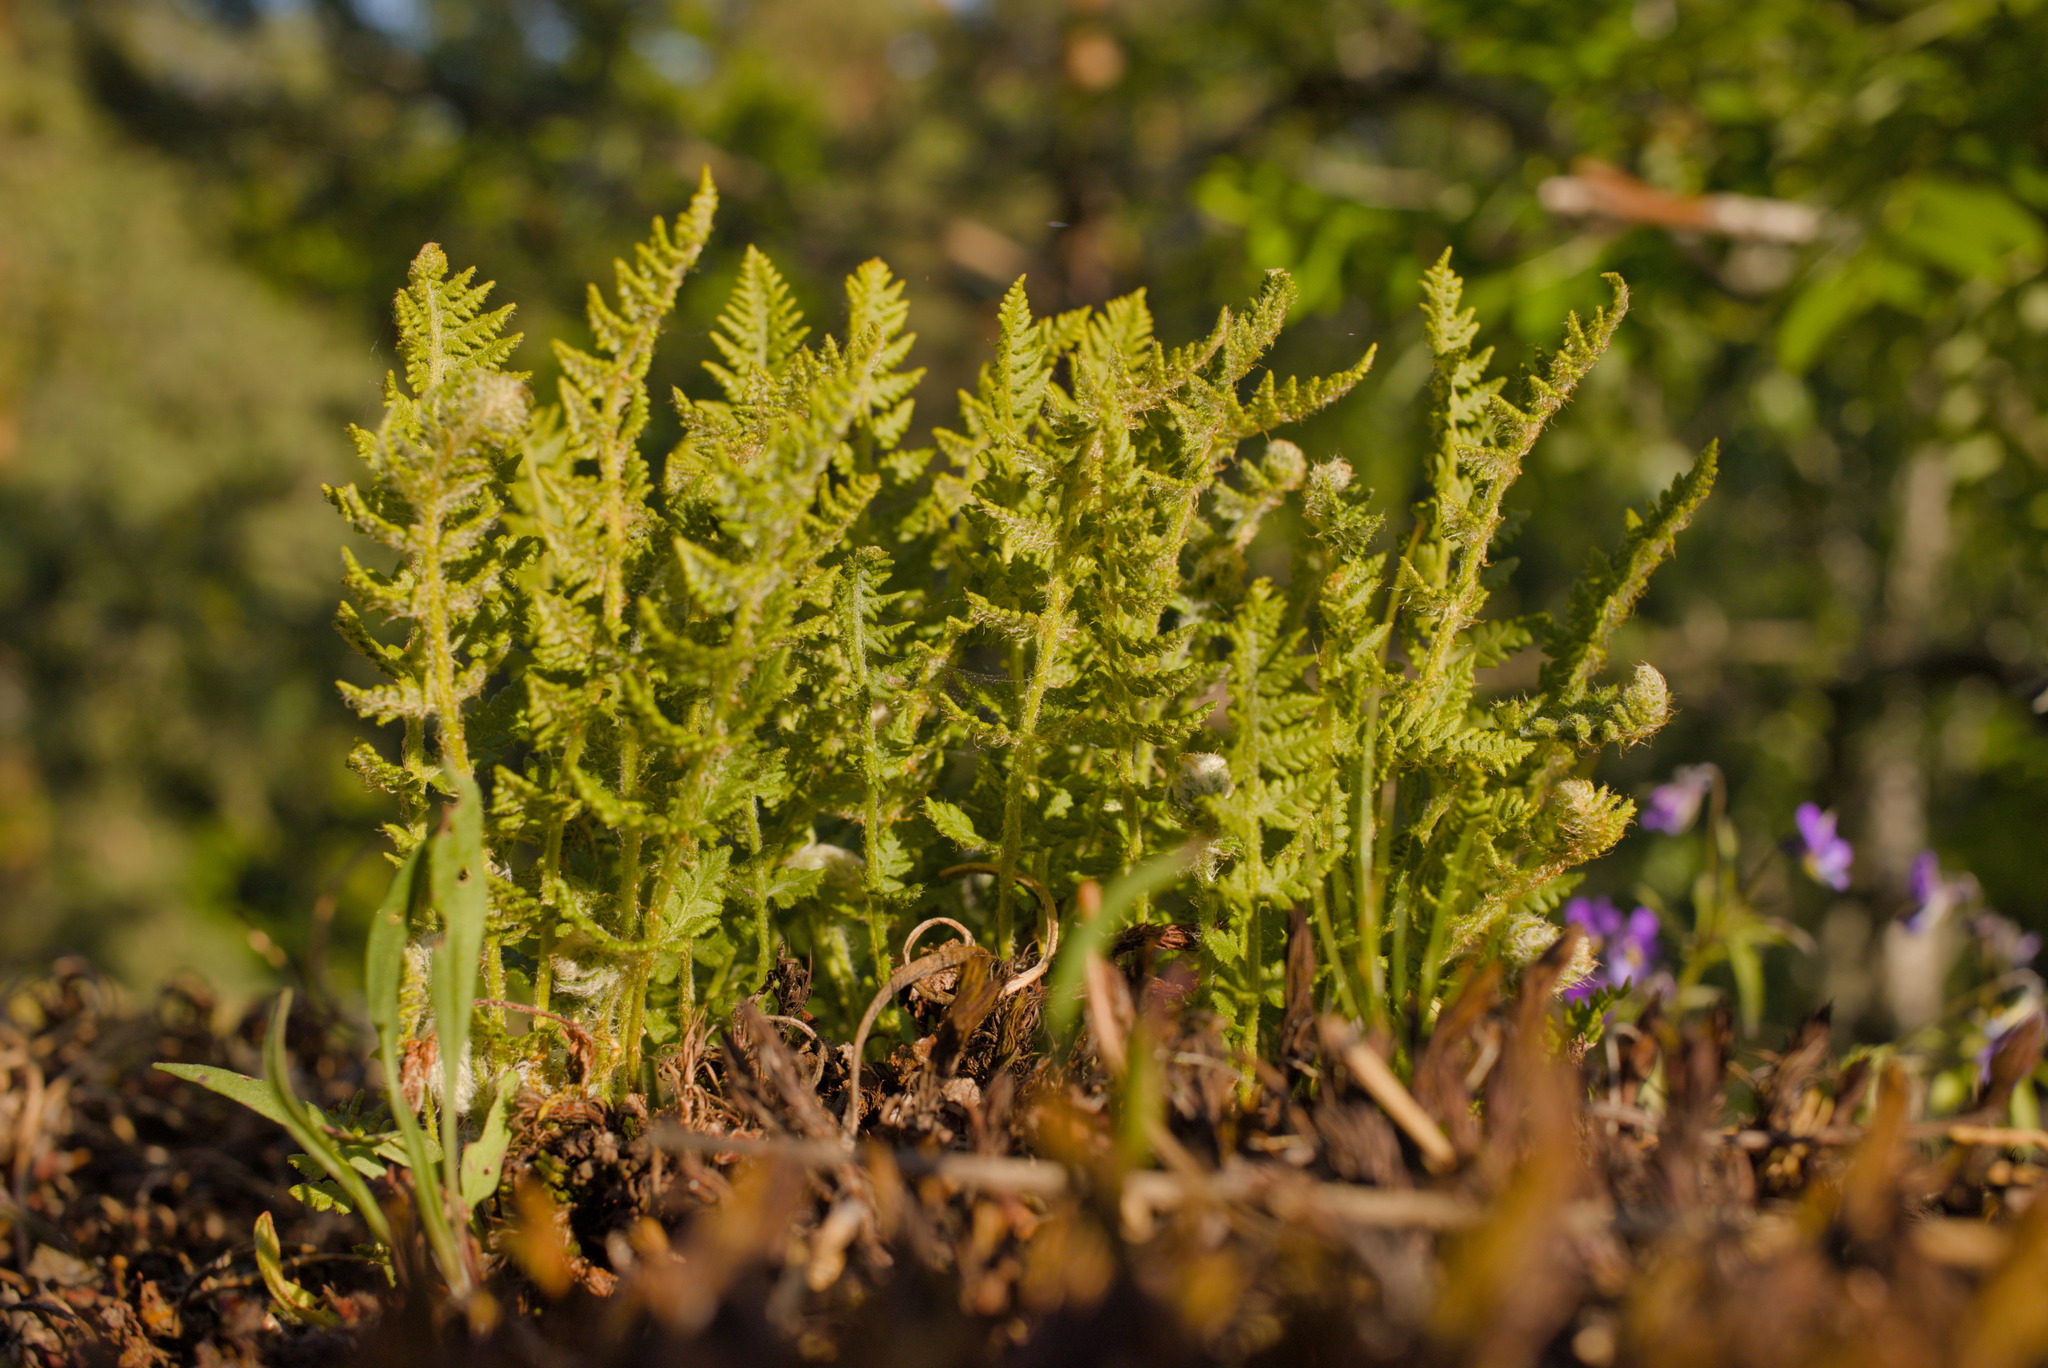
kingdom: Plantae
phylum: Tracheophyta
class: Polypodiopsida
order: Polypodiales
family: Woodsiaceae
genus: Woodsia
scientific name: Woodsia ilvensis
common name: Fragrant woodsia
